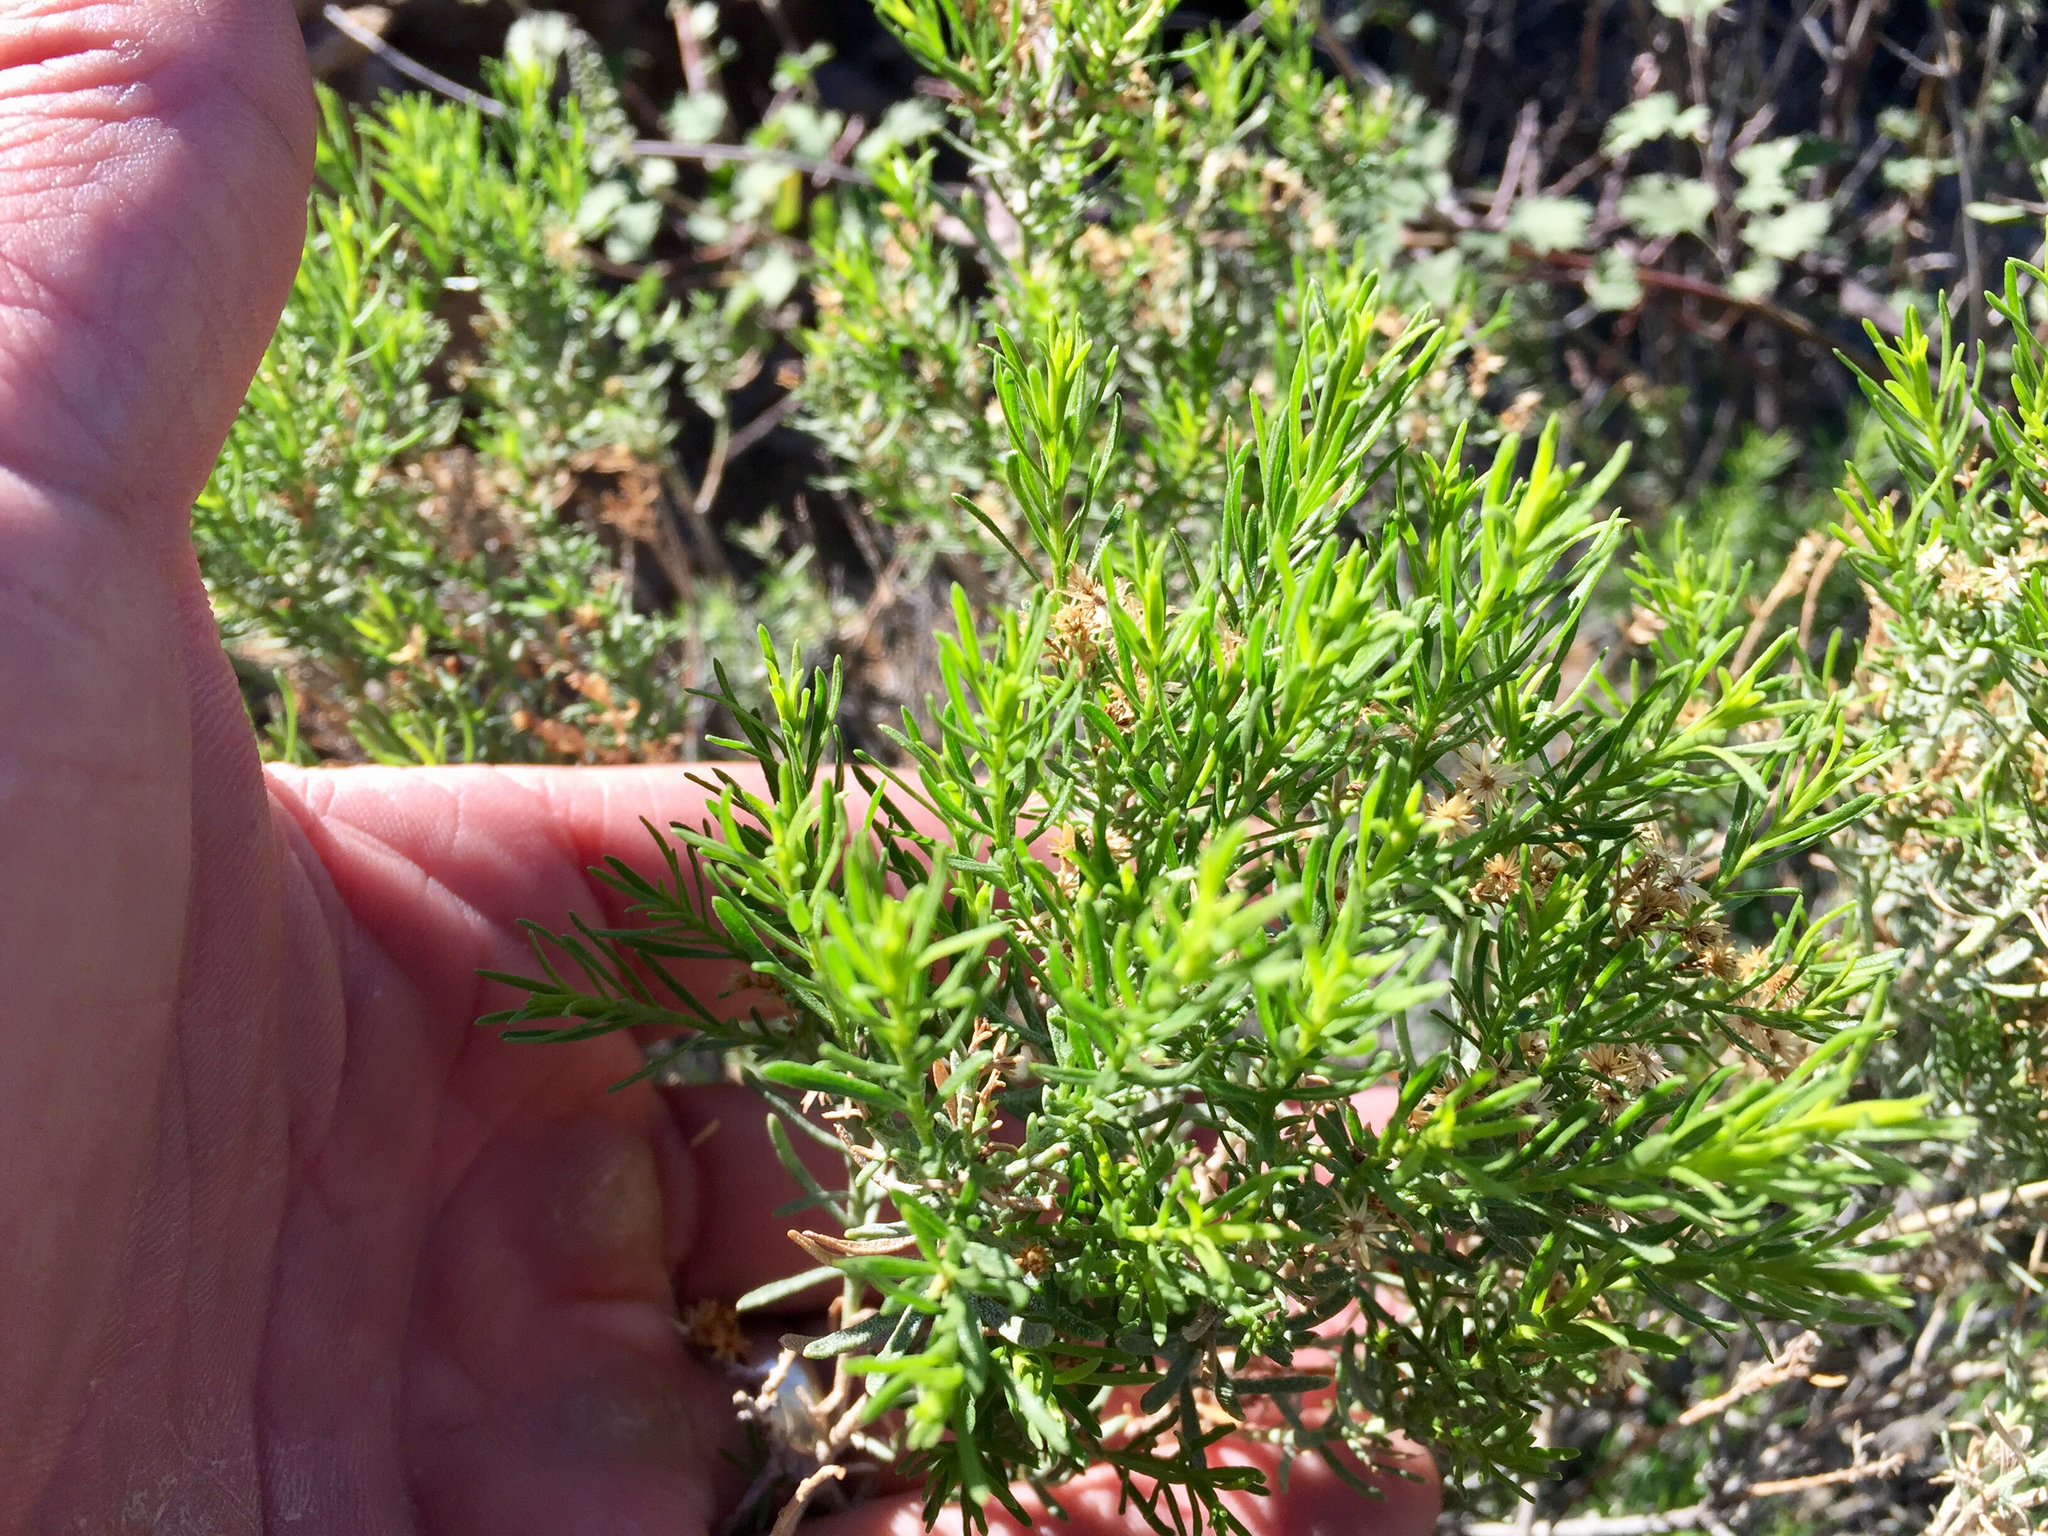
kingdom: Plantae
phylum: Tracheophyta
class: Magnoliopsida
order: Asterales
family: Asteraceae
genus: Ericameria
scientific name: Ericameria laricifolia
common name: Turpentine-bush
